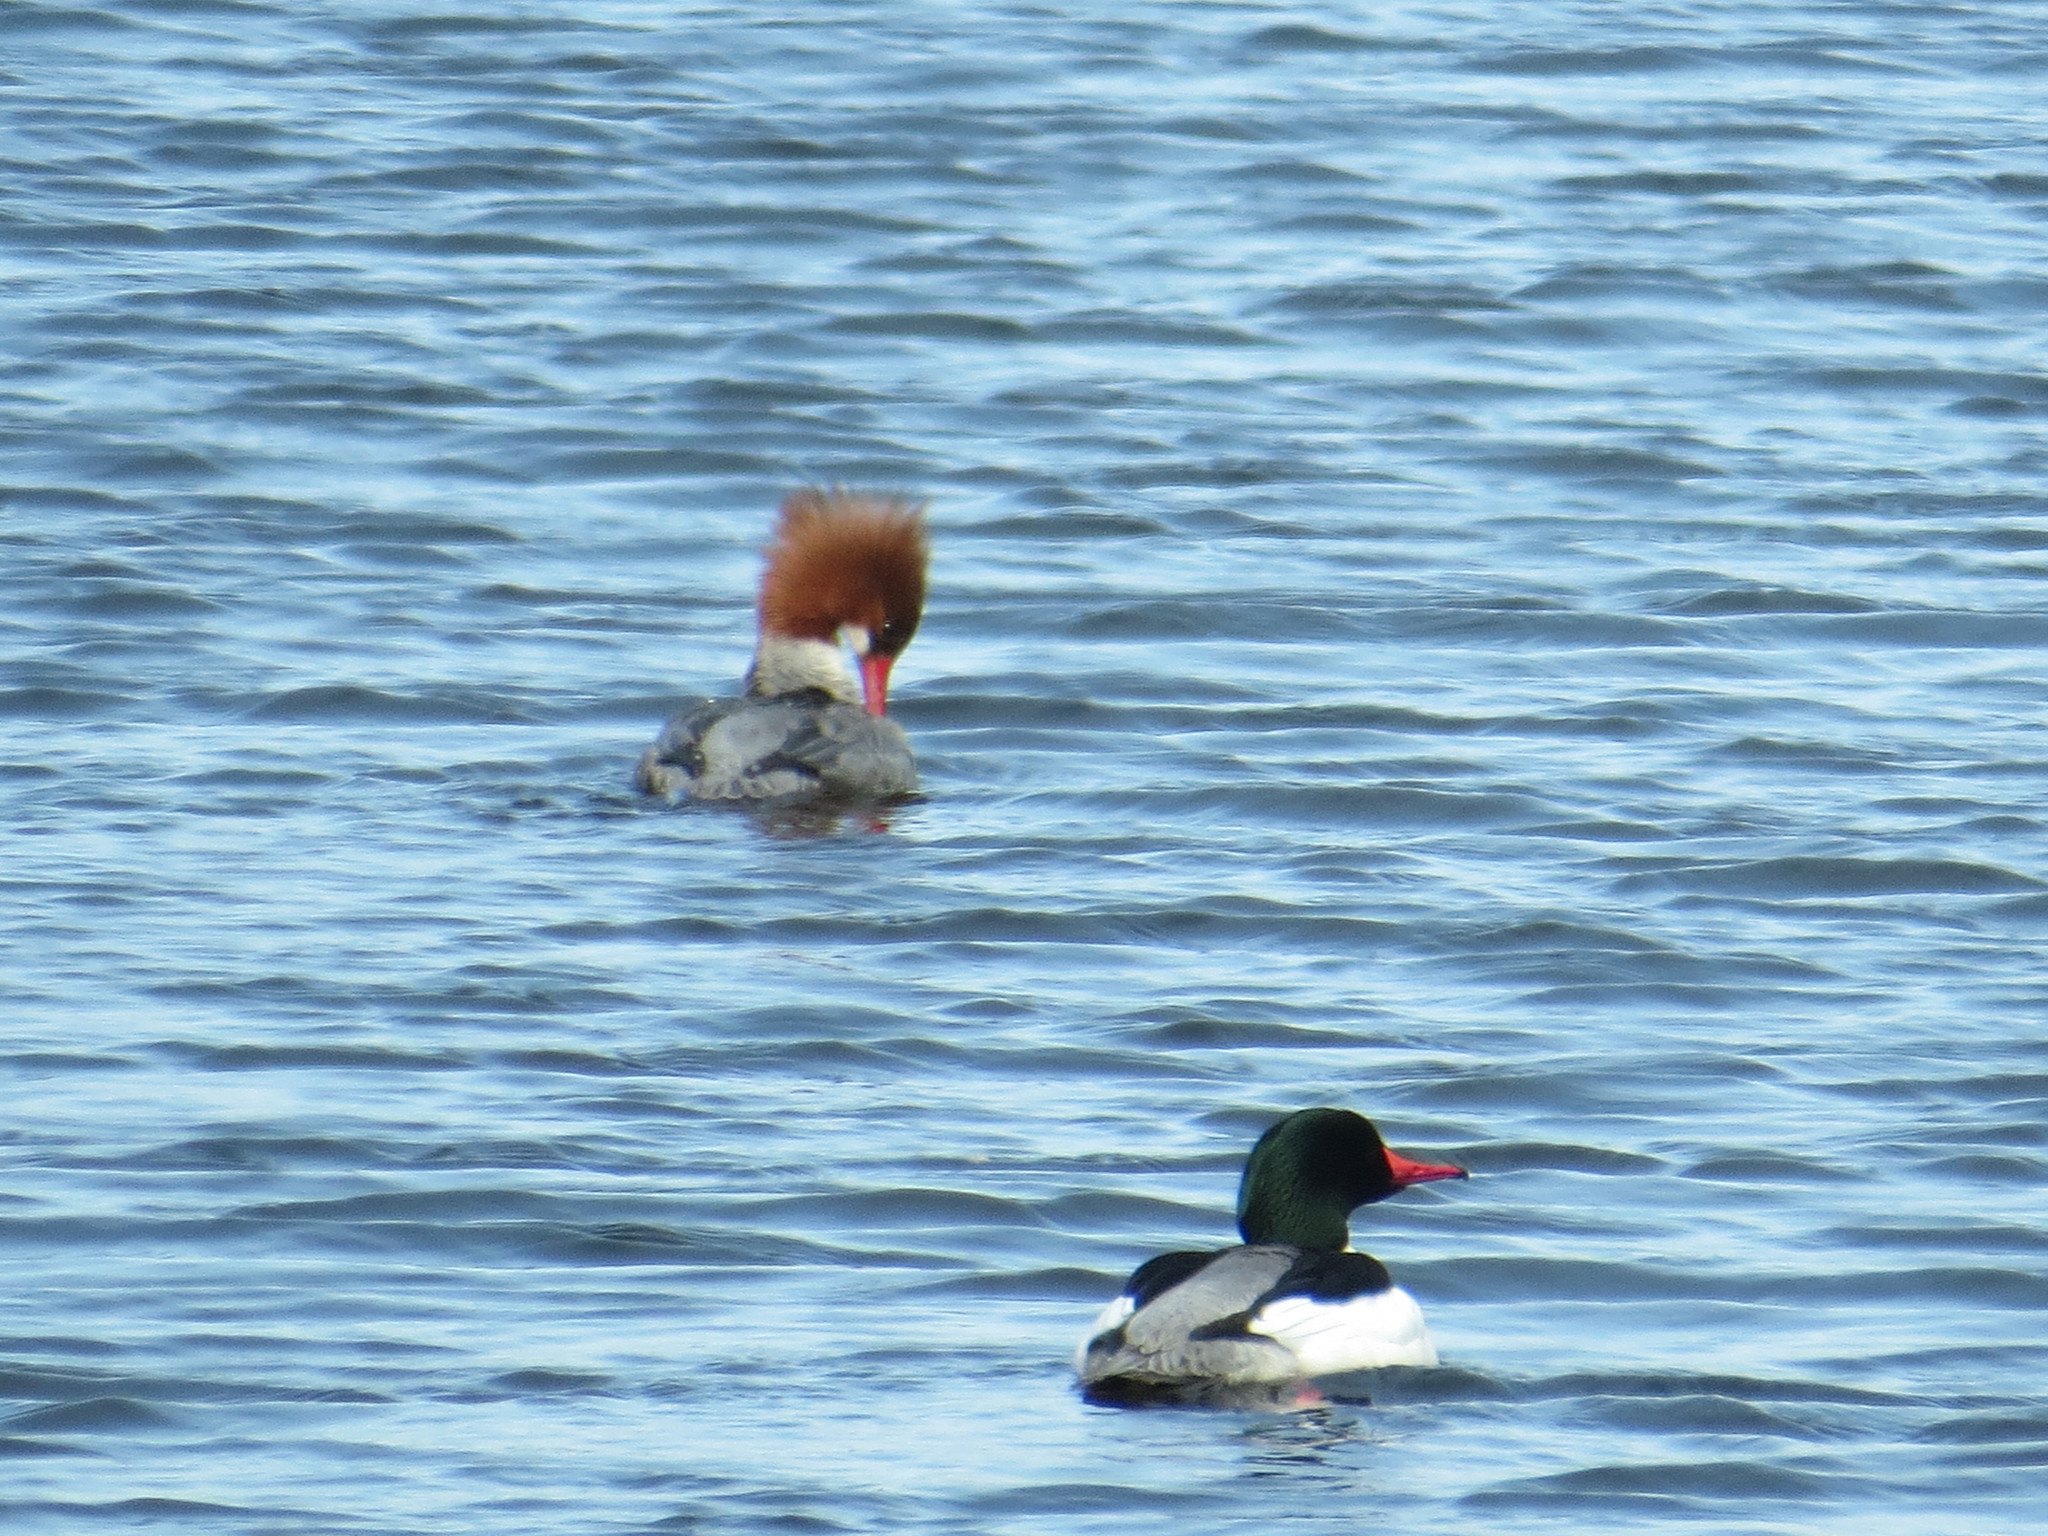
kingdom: Animalia
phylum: Chordata
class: Aves
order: Anseriformes
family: Anatidae
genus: Mergus
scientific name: Mergus merganser
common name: Common merganser
